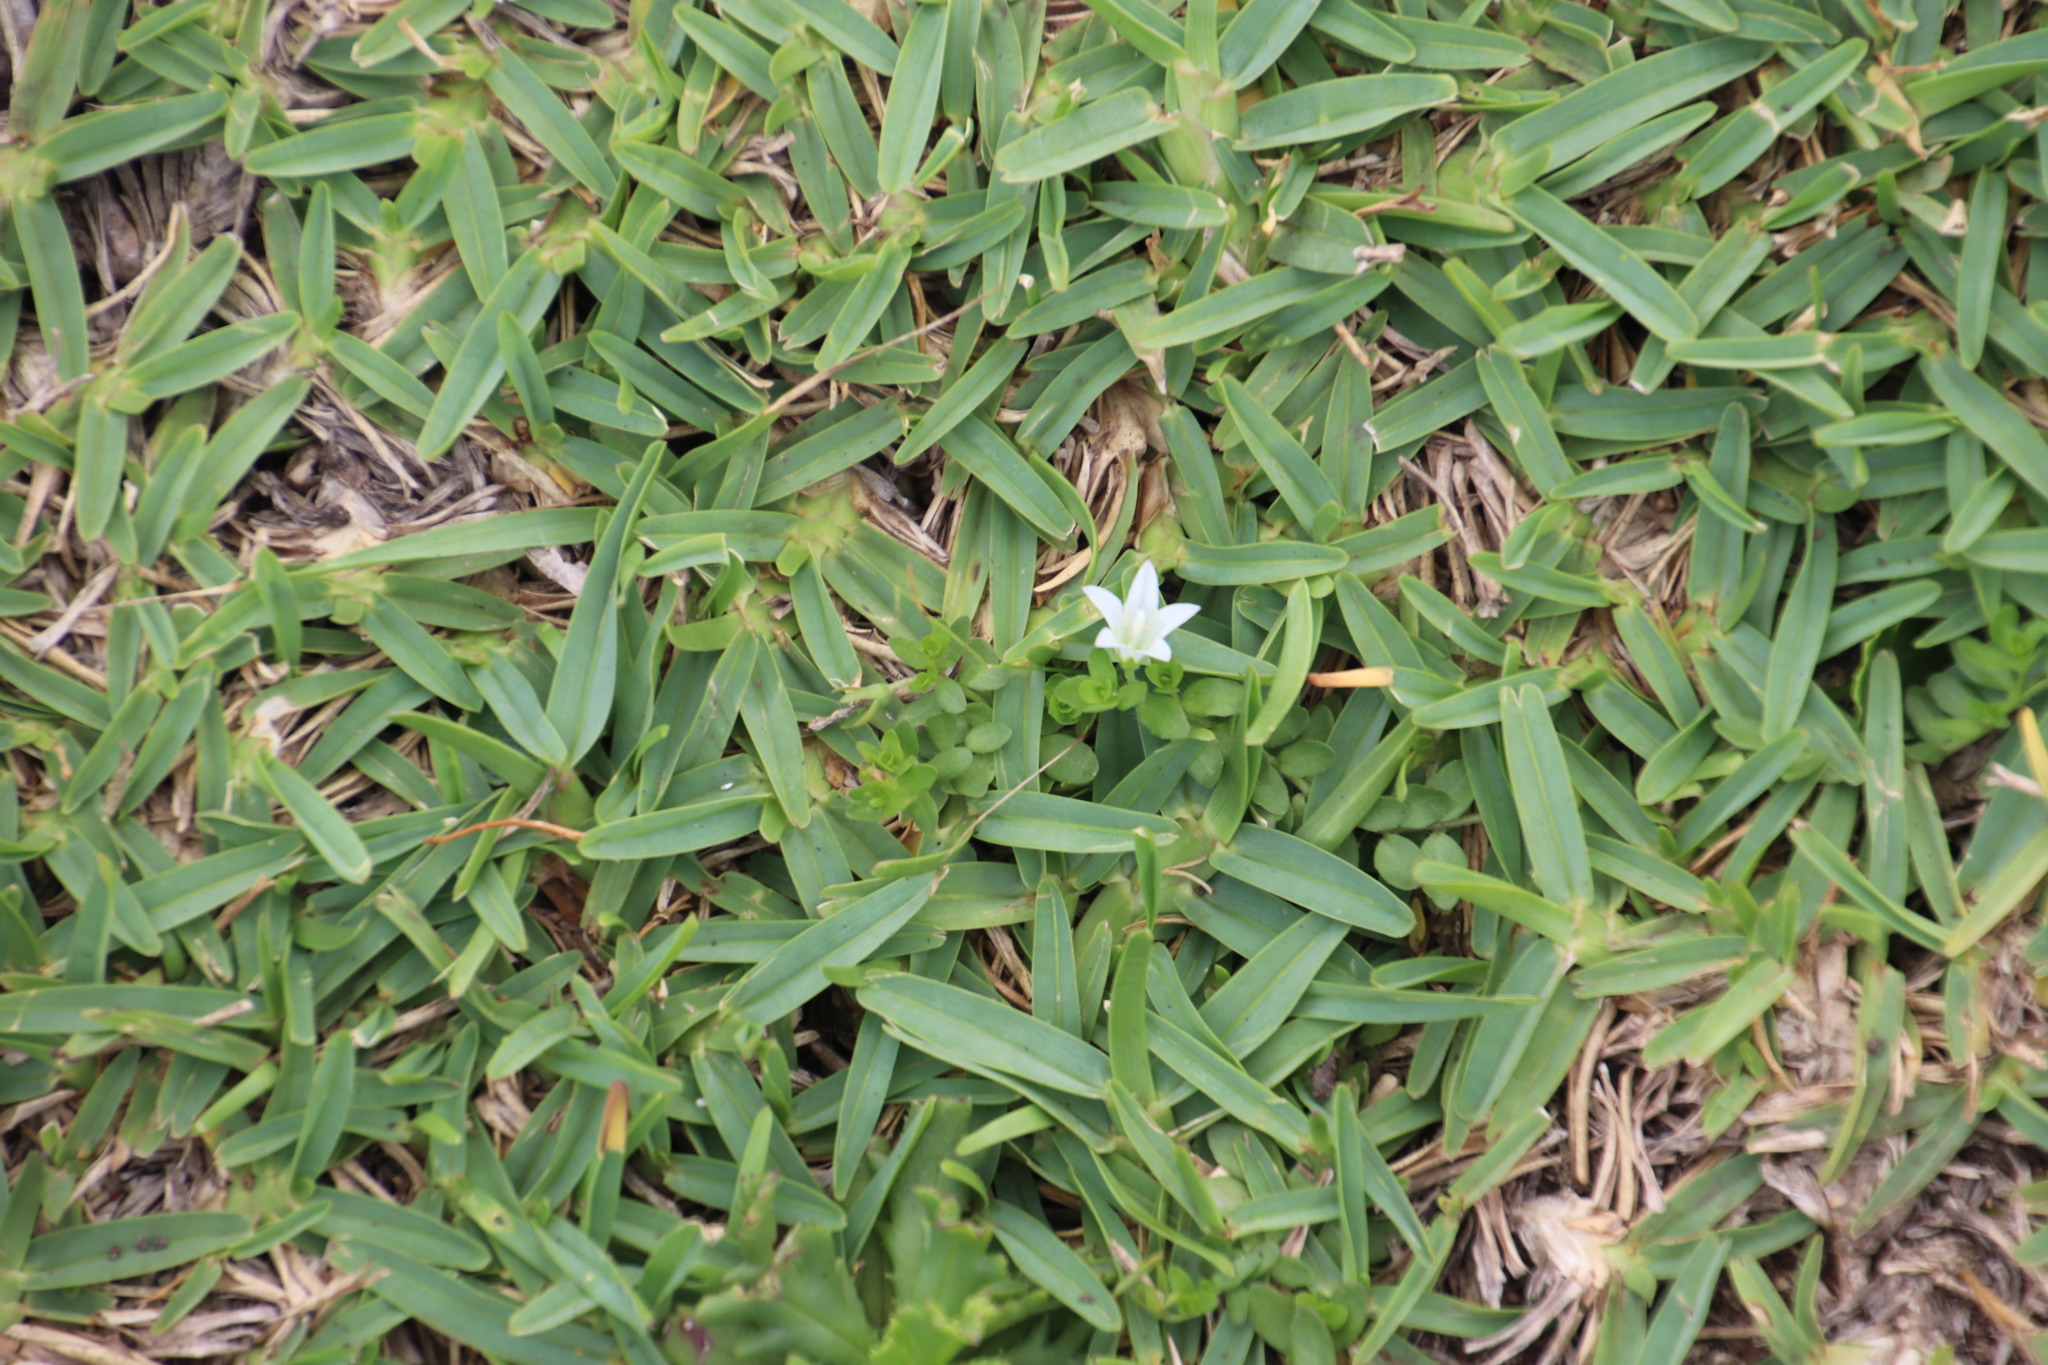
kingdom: Plantae
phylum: Tracheophyta
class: Magnoliopsida
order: Asterales
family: Campanulaceae
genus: Wahlenbergia
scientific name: Wahlenbergia procumbens
